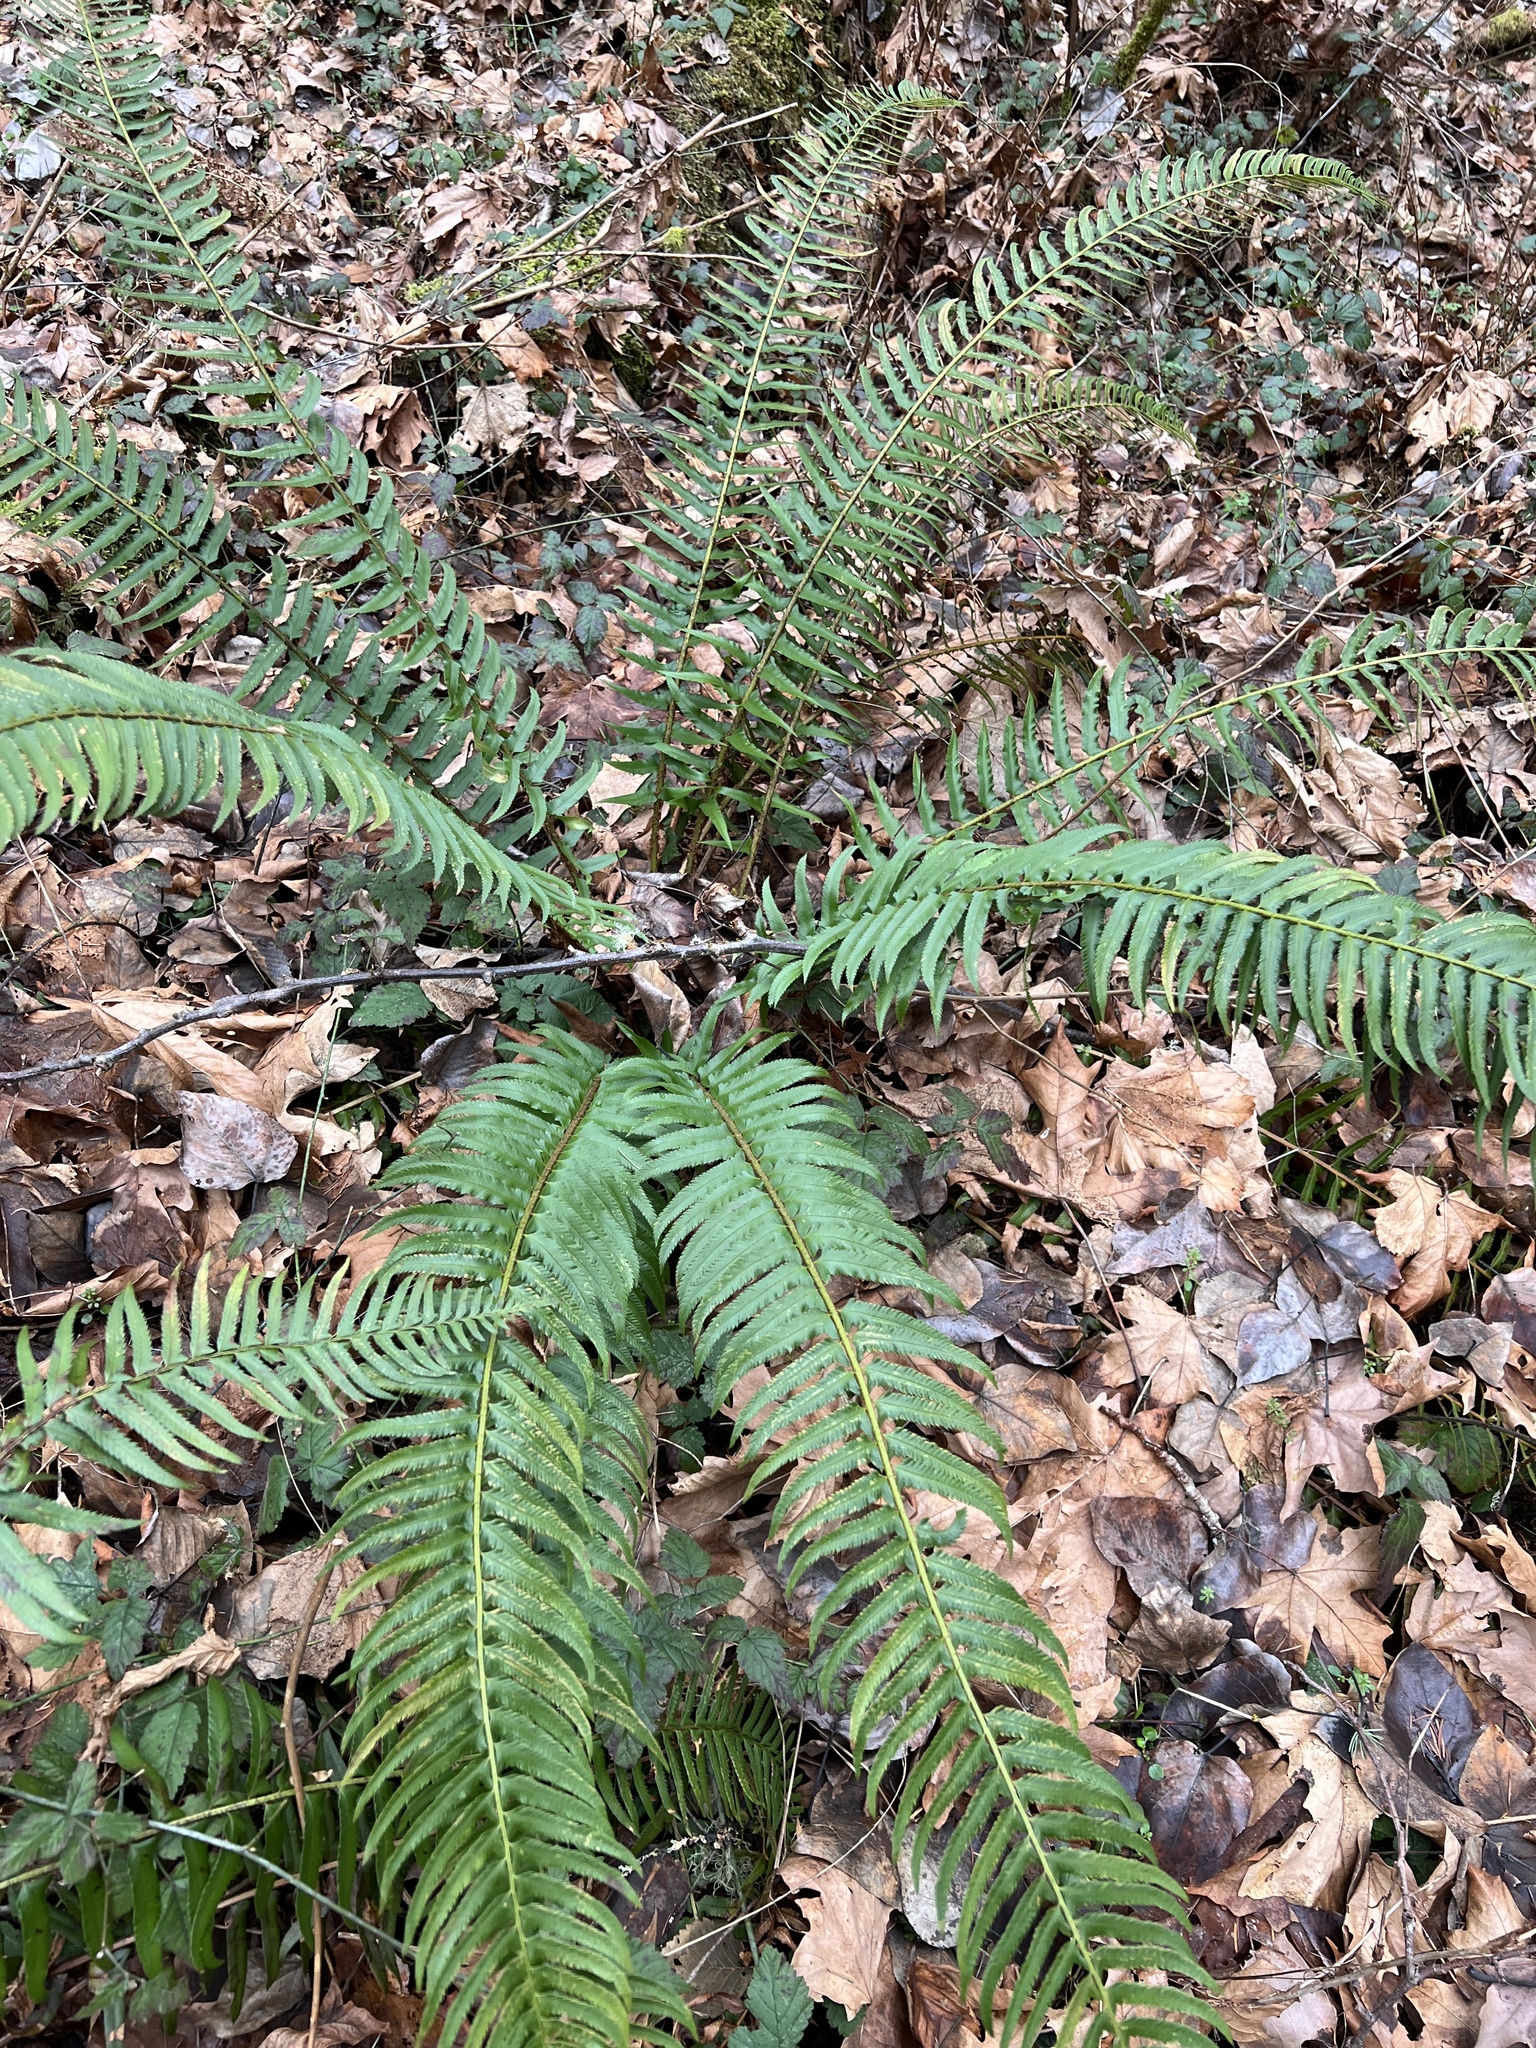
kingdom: Plantae
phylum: Tracheophyta
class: Polypodiopsida
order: Polypodiales
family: Dryopteridaceae
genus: Polystichum
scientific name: Polystichum munitum
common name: Western sword-fern
